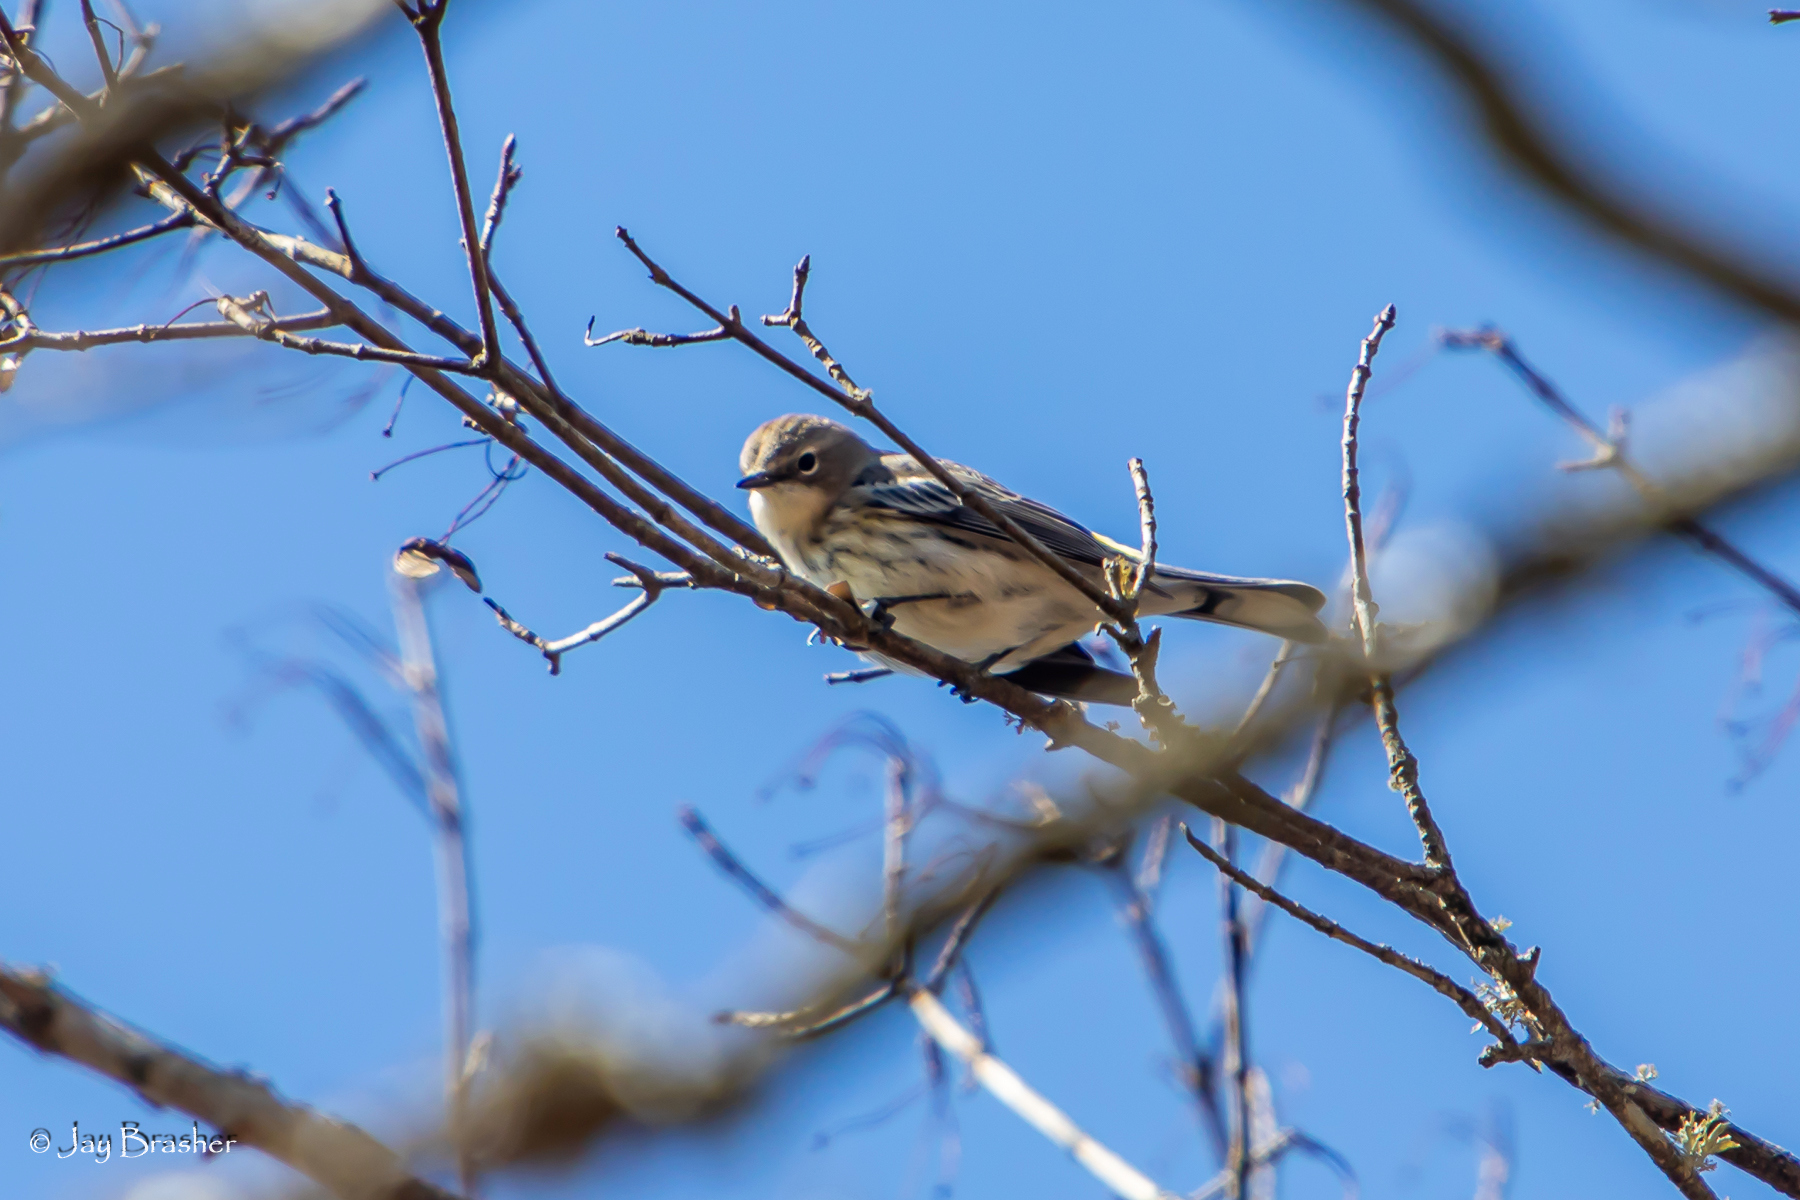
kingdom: Animalia
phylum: Chordata
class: Aves
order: Passeriformes
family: Parulidae
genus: Setophaga
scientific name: Setophaga coronata
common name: Myrtle warbler
